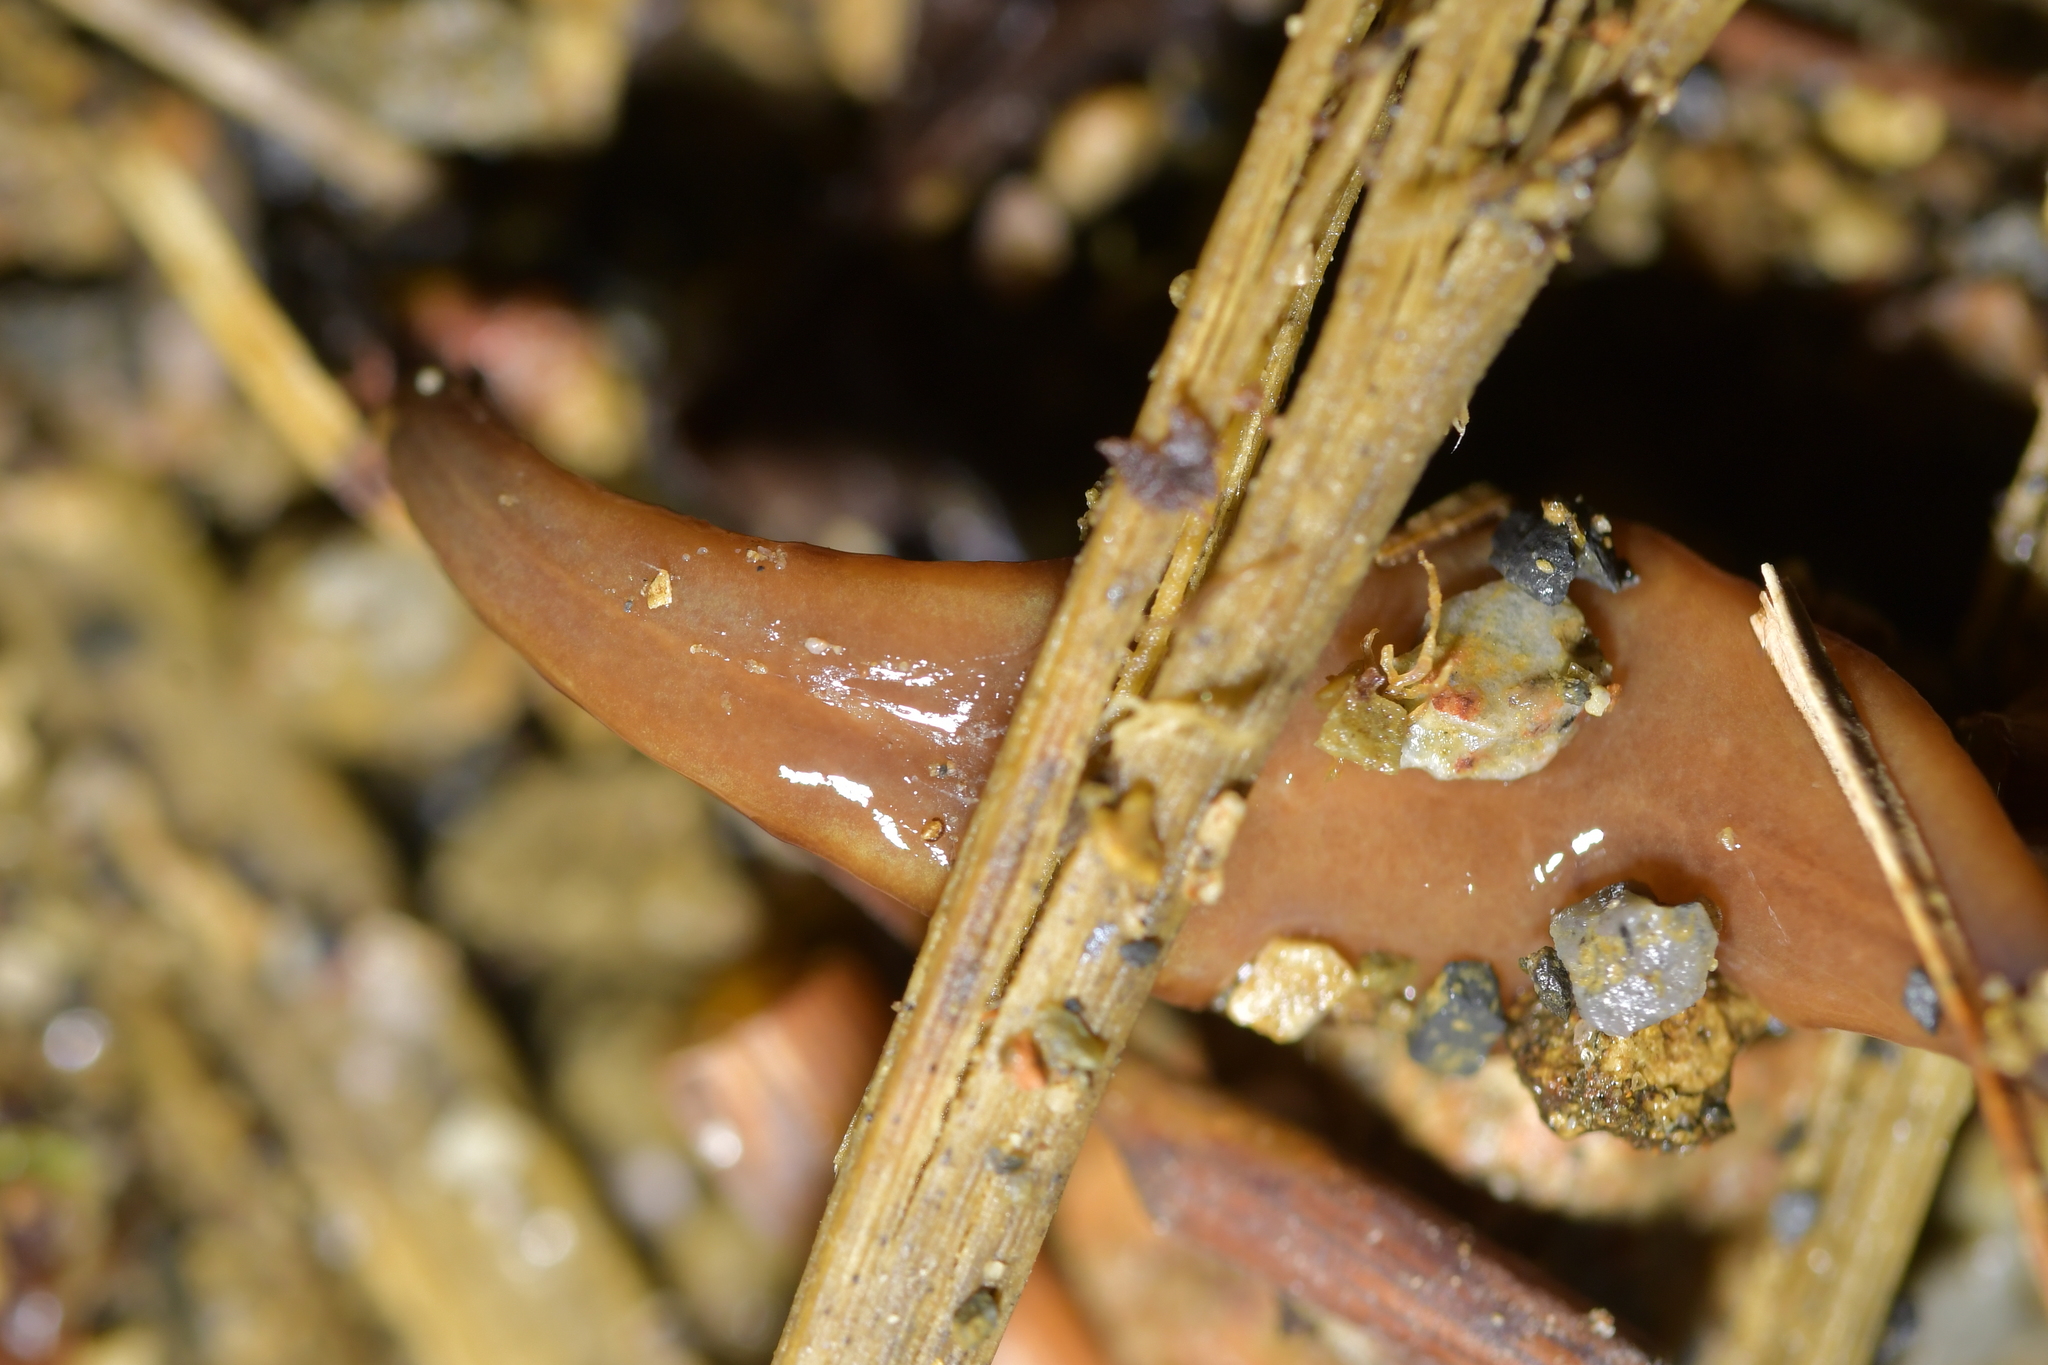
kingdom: Animalia
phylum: Platyhelminthes
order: Tricladida
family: Geoplanidae
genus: Newzealandia
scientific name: Newzealandia iris
